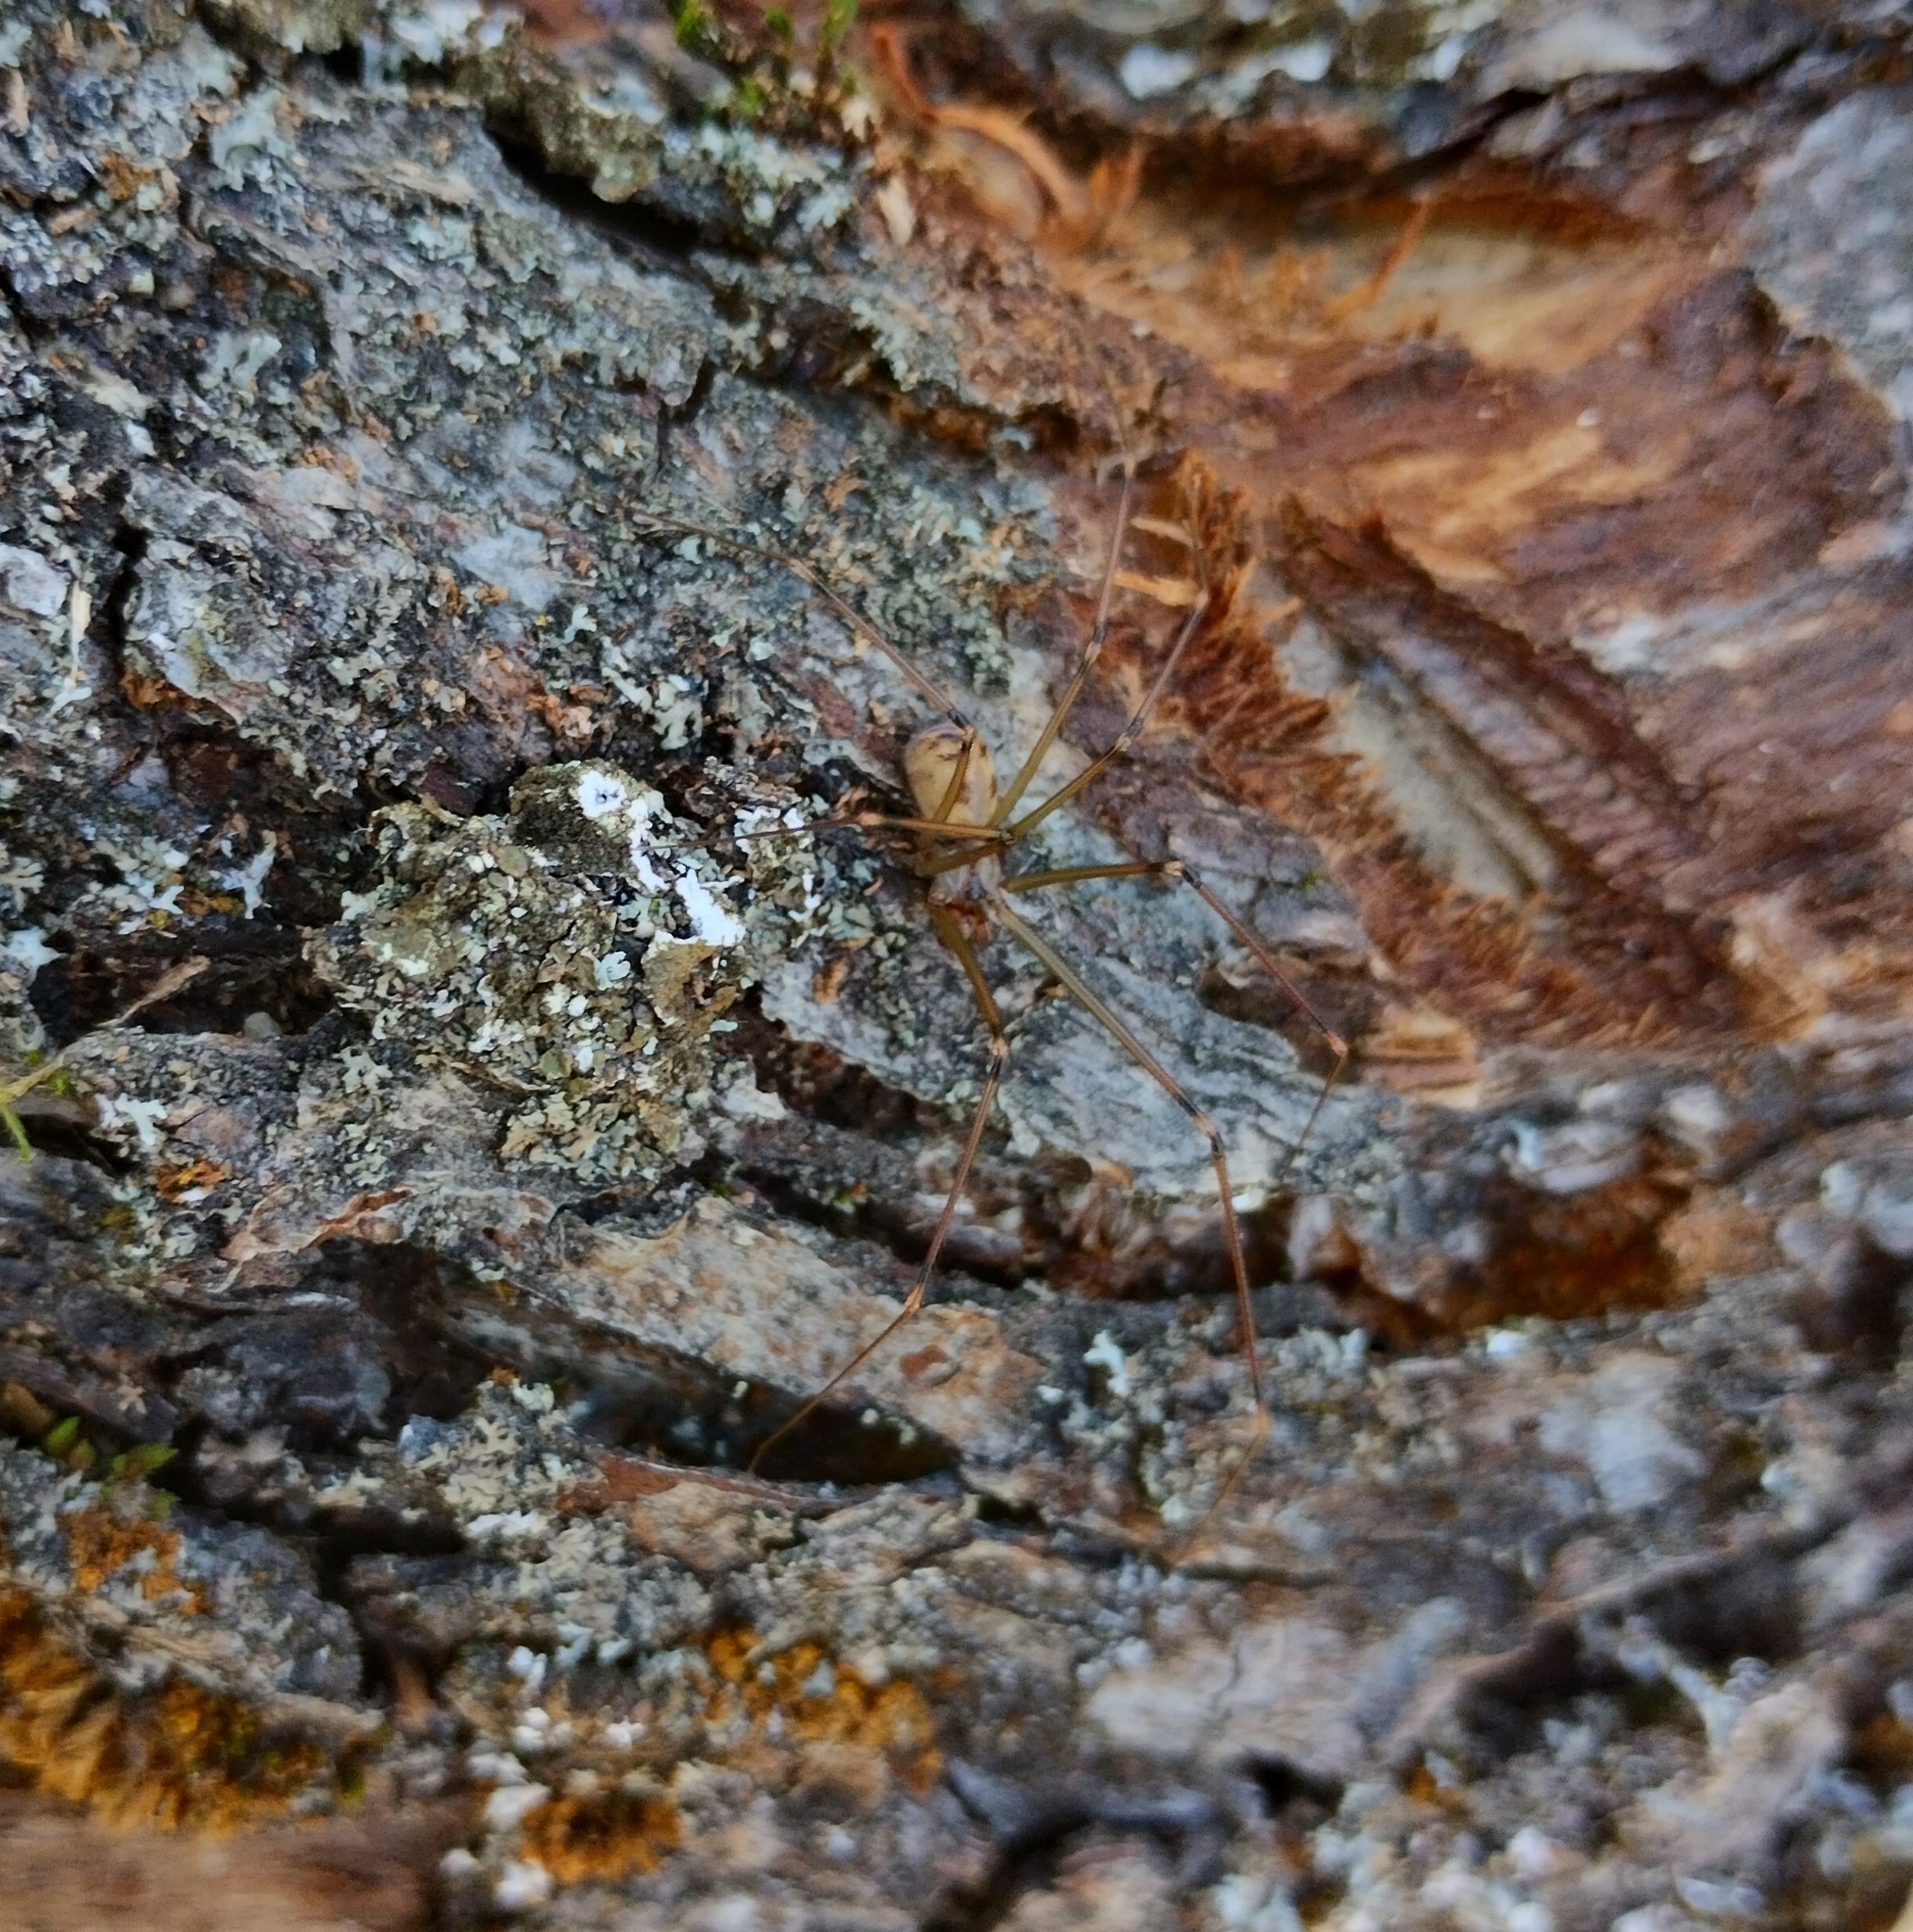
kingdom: Animalia
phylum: Arthropoda
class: Arachnida
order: Araneae
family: Pholcidae
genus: Hoplopholcus
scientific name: Hoplopholcus forskali
